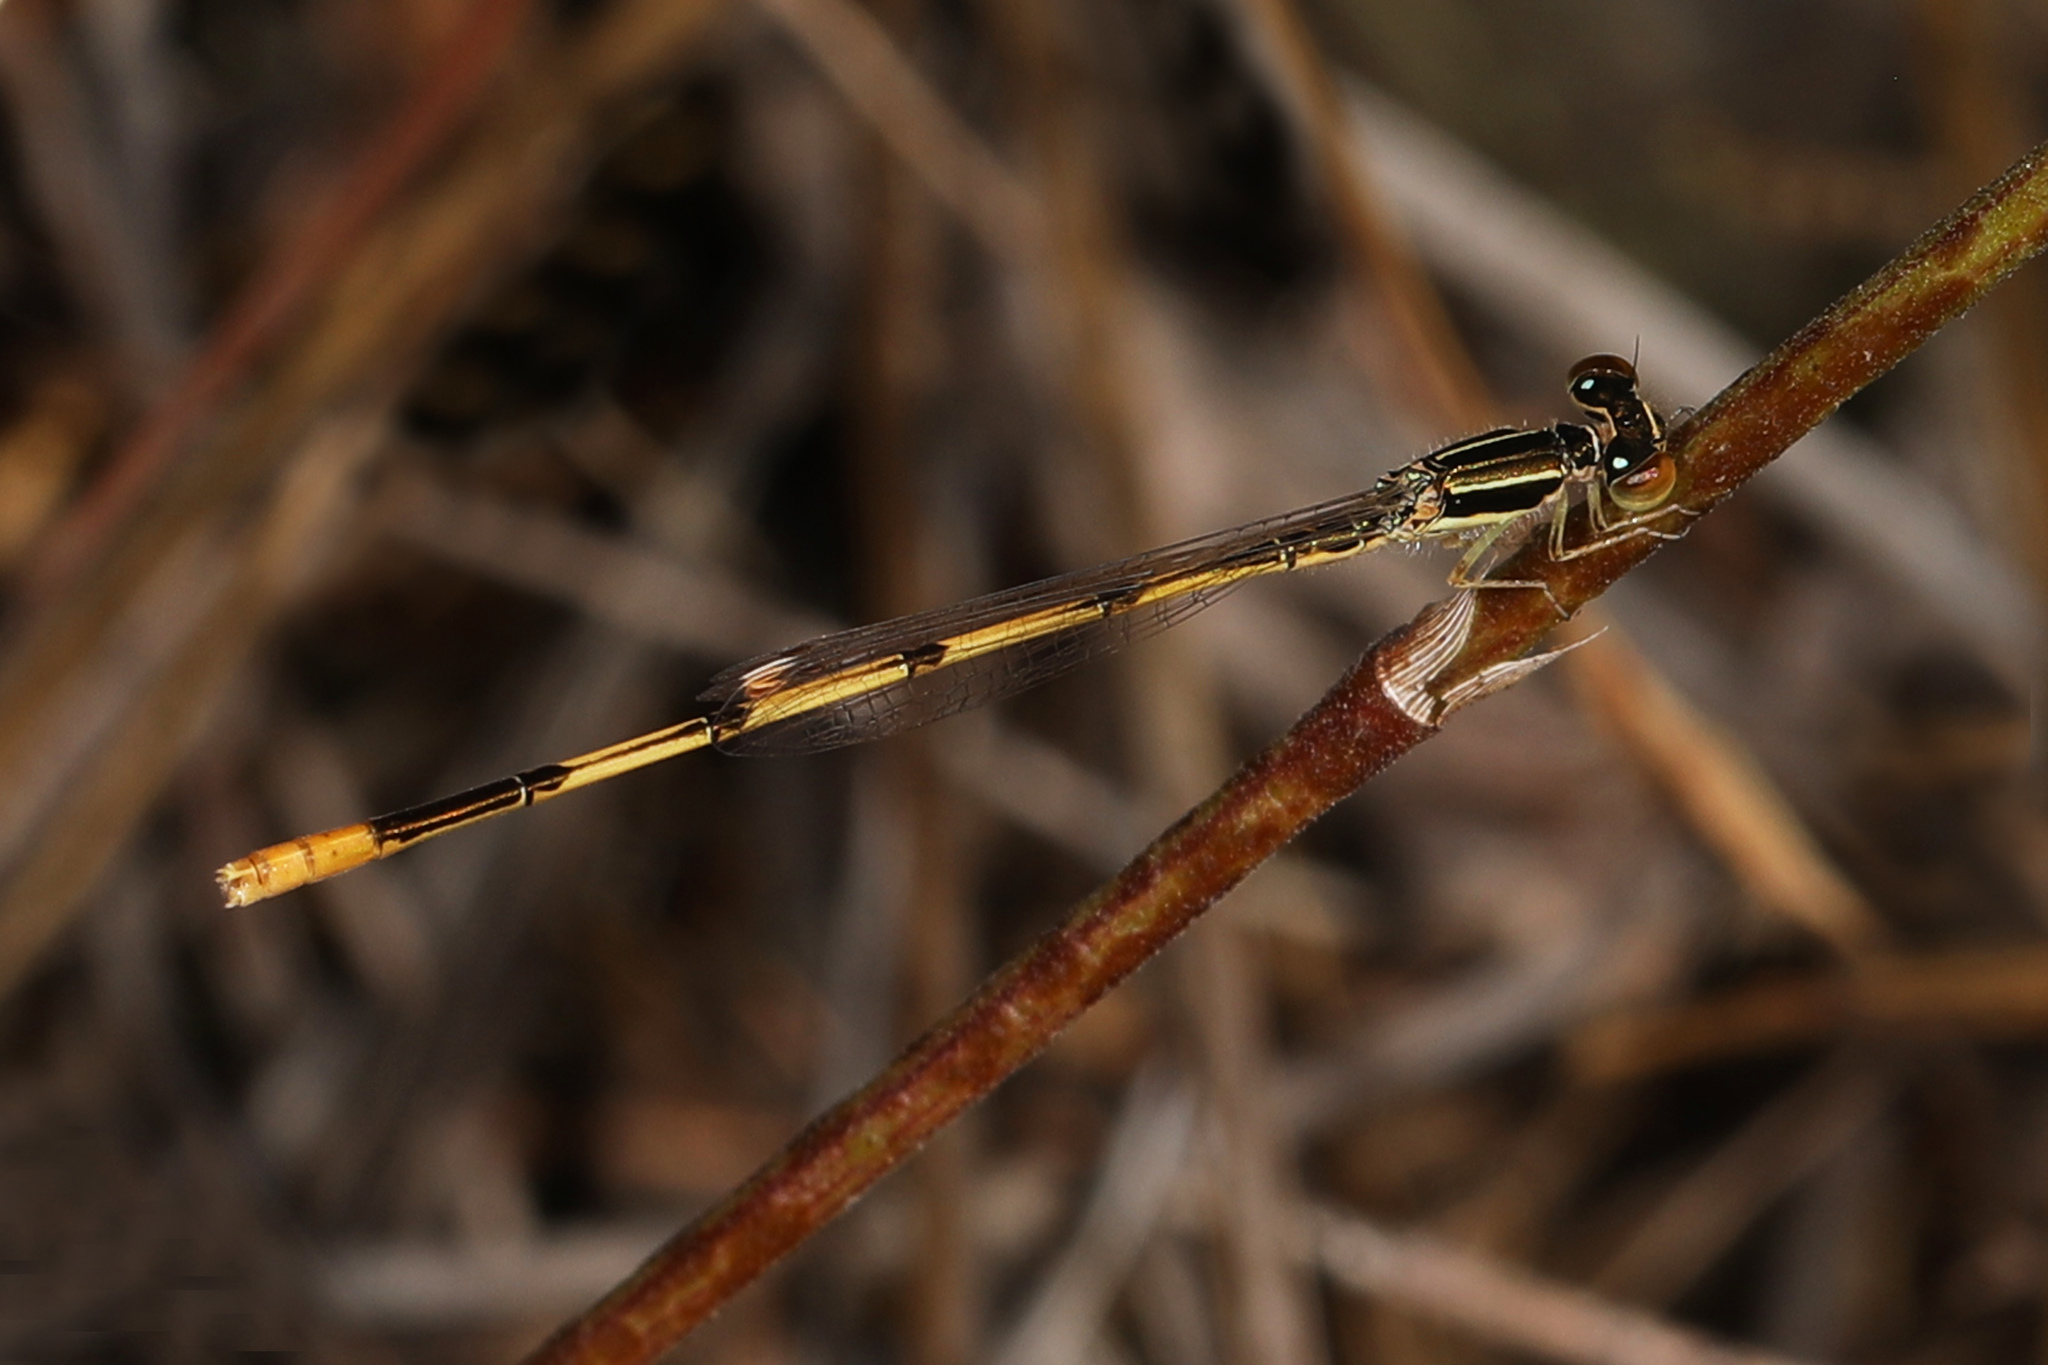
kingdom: Animalia
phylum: Arthropoda
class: Insecta
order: Odonata
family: Coenagrionidae
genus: Ischnura
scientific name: Ischnura hastata
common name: Citrine forktail
